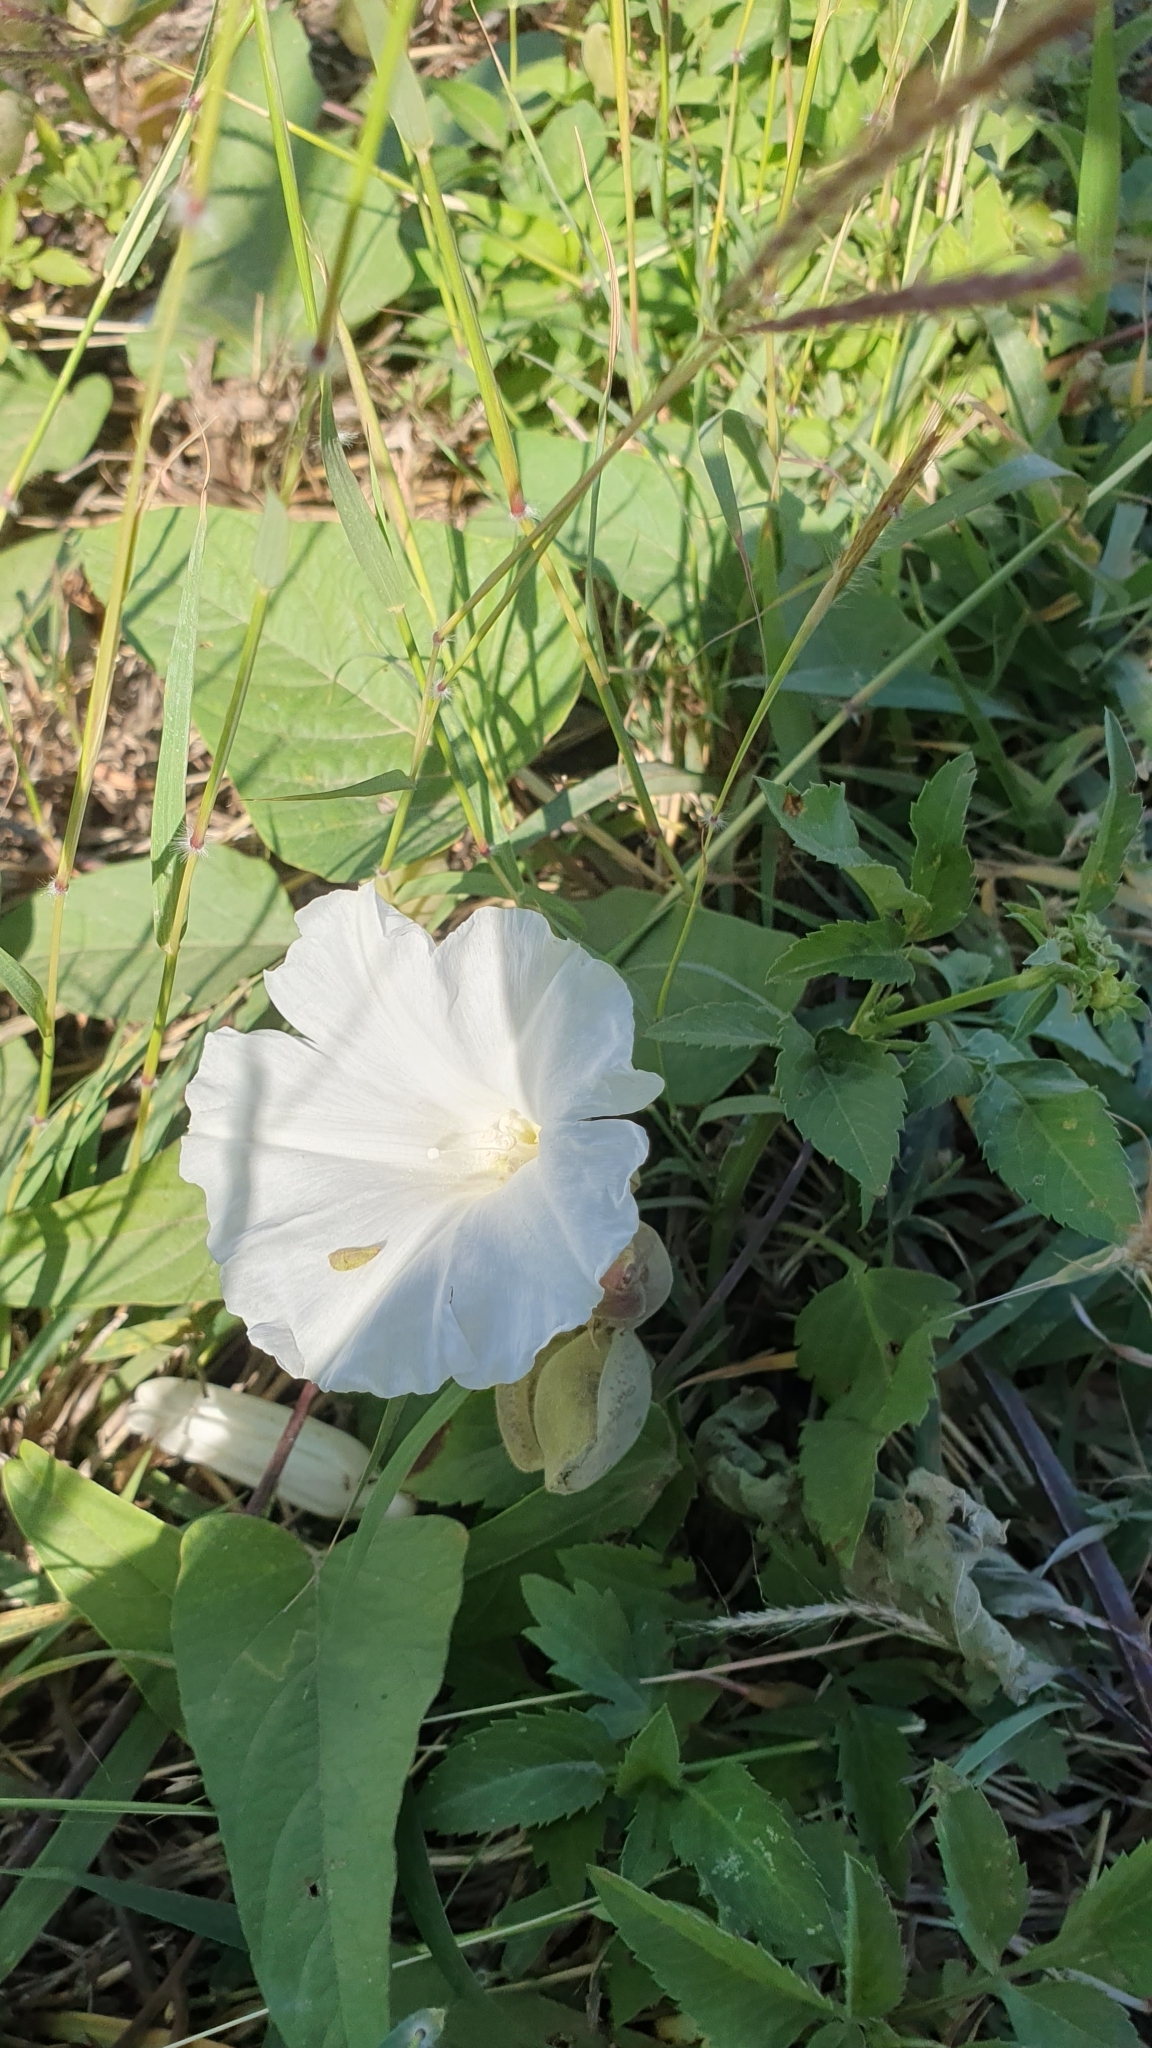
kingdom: Plantae
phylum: Tracheophyta
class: Magnoliopsida
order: Solanales
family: Convolvulaceae
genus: Operculina
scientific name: Operculina turpethum
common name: Transparent wood-rose
